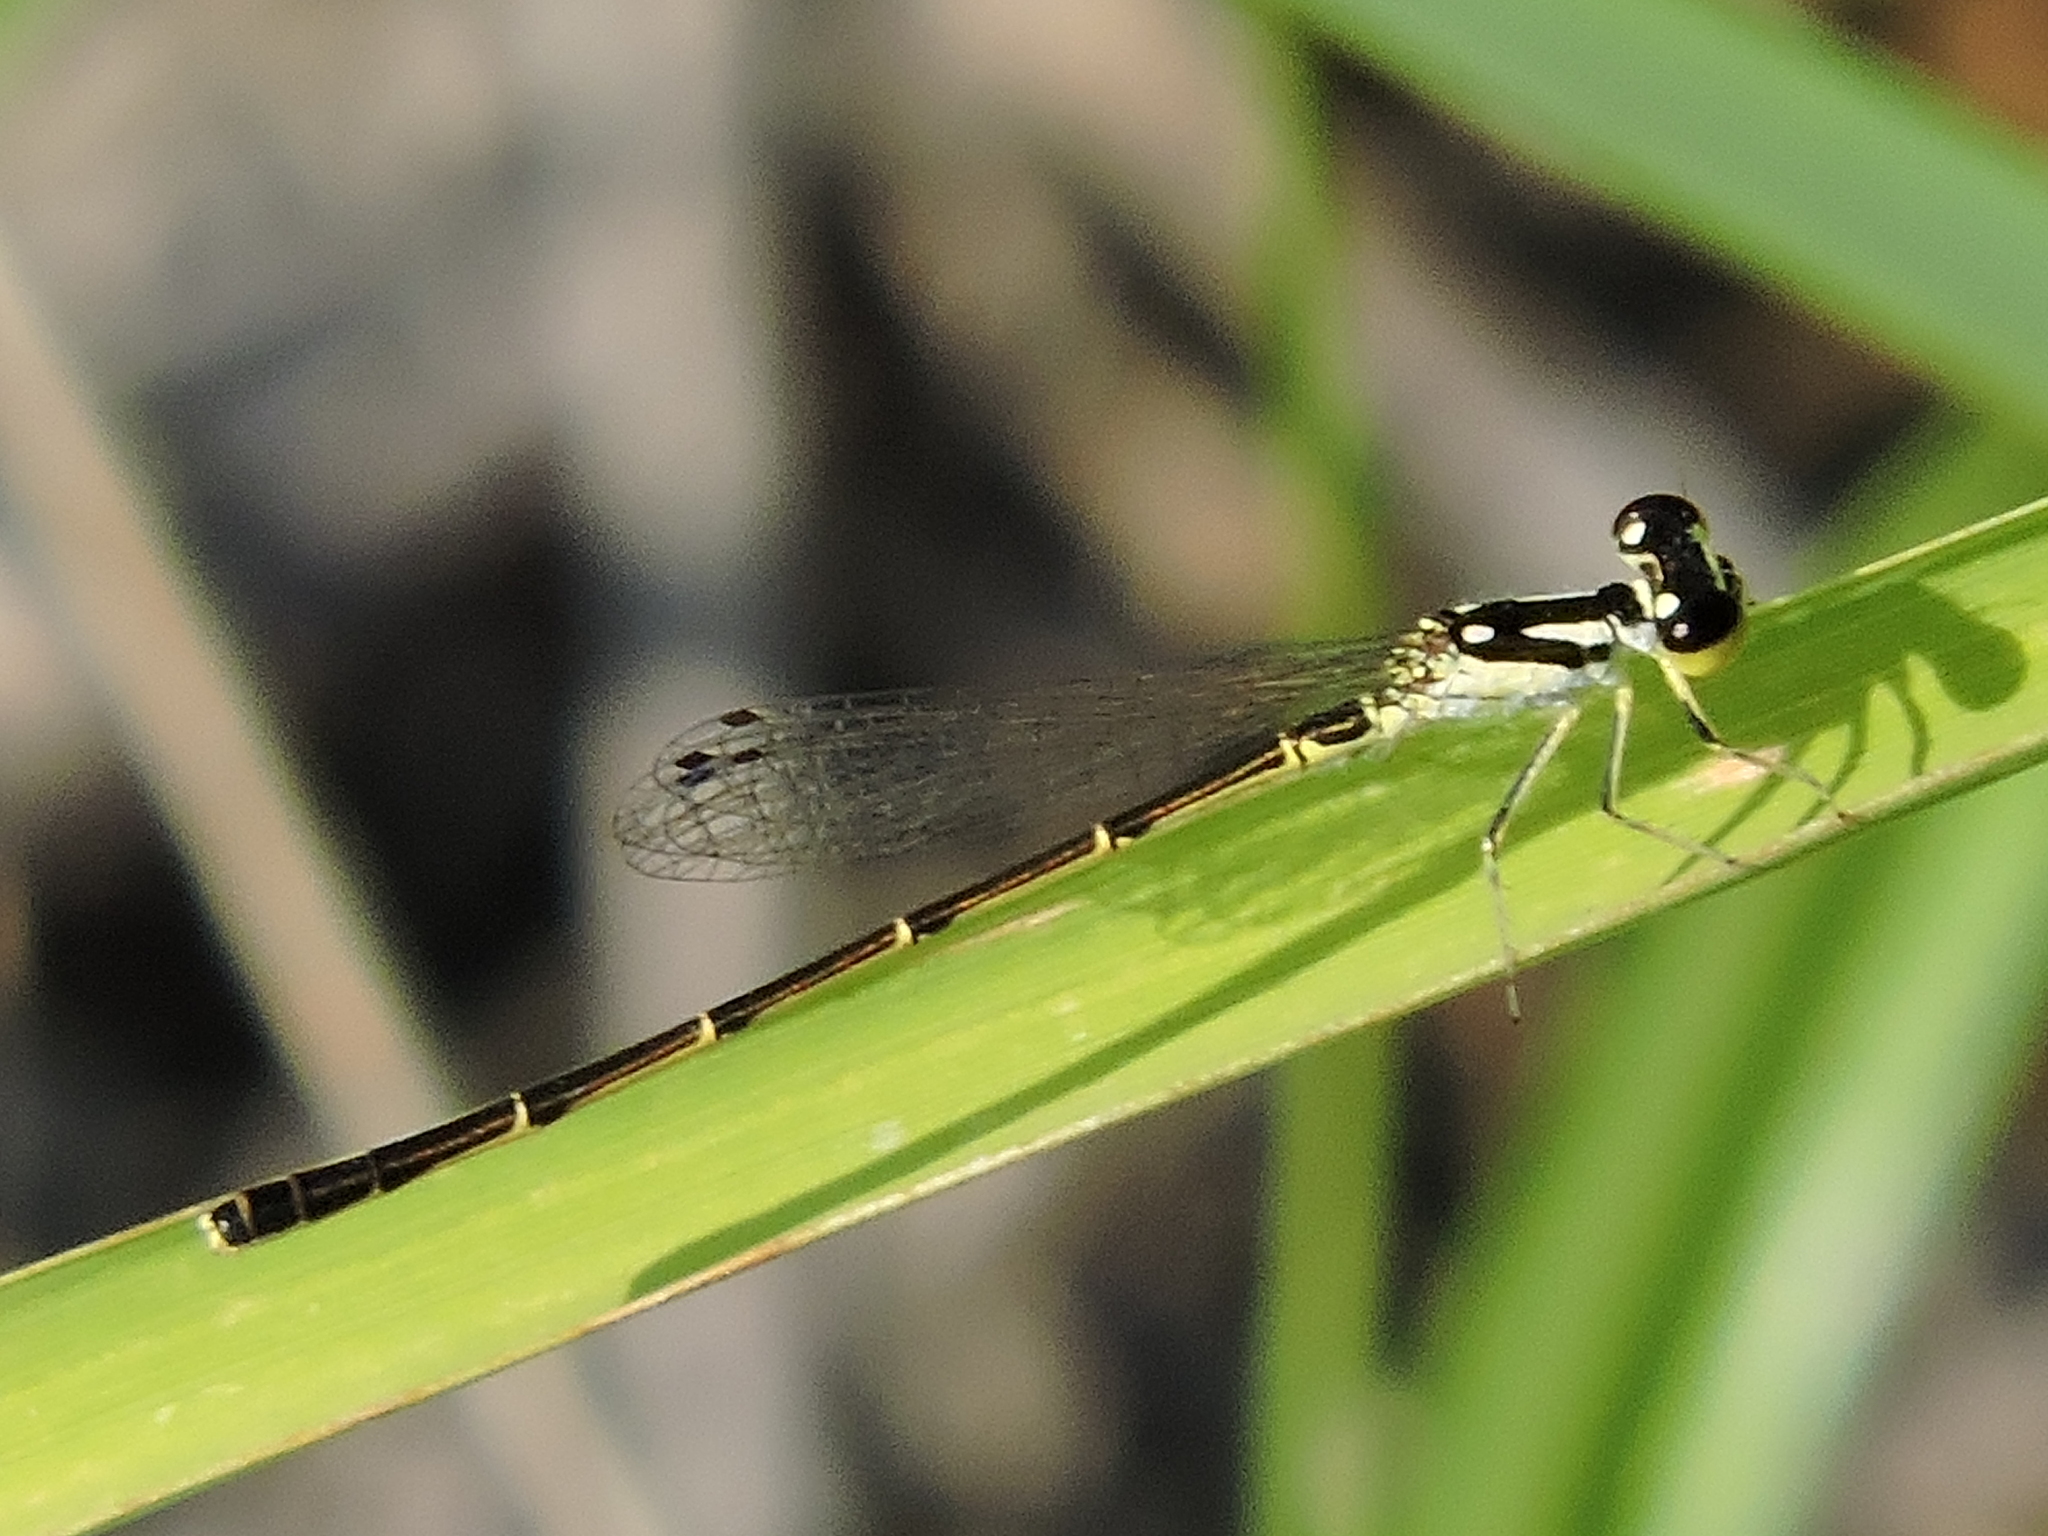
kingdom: Animalia
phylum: Arthropoda
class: Insecta
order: Odonata
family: Coenagrionidae
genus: Ischnura
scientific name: Ischnura posita
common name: Fragile forktail
